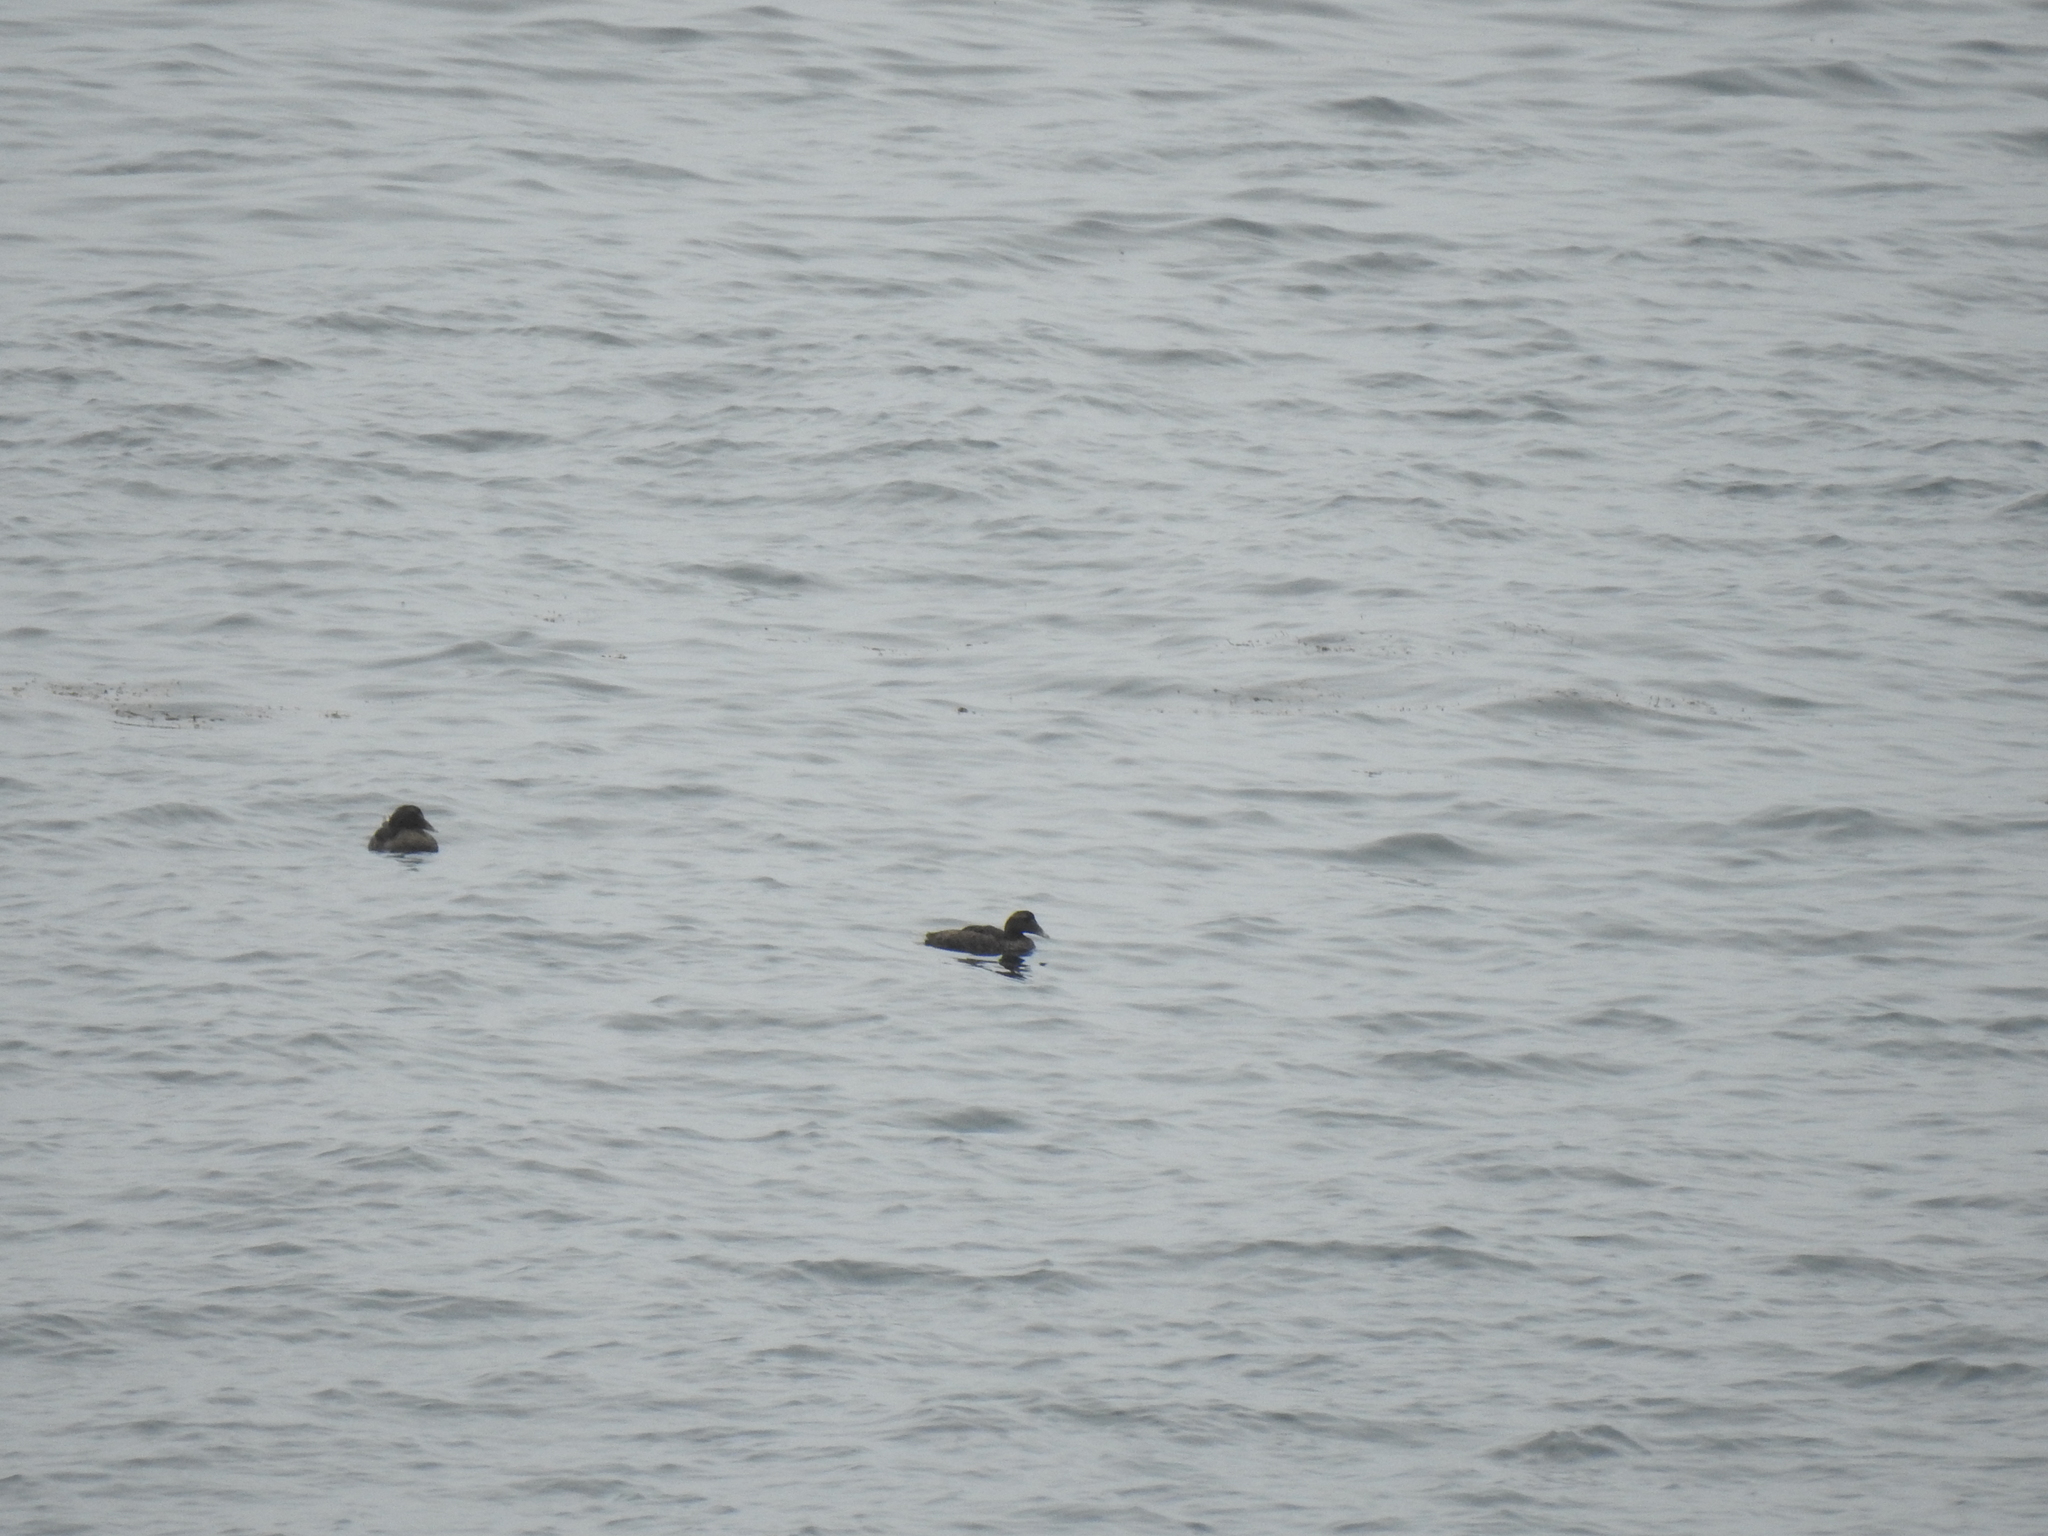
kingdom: Animalia
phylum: Chordata
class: Aves
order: Anseriformes
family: Anatidae
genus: Somateria
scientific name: Somateria mollissima
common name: Common eider
